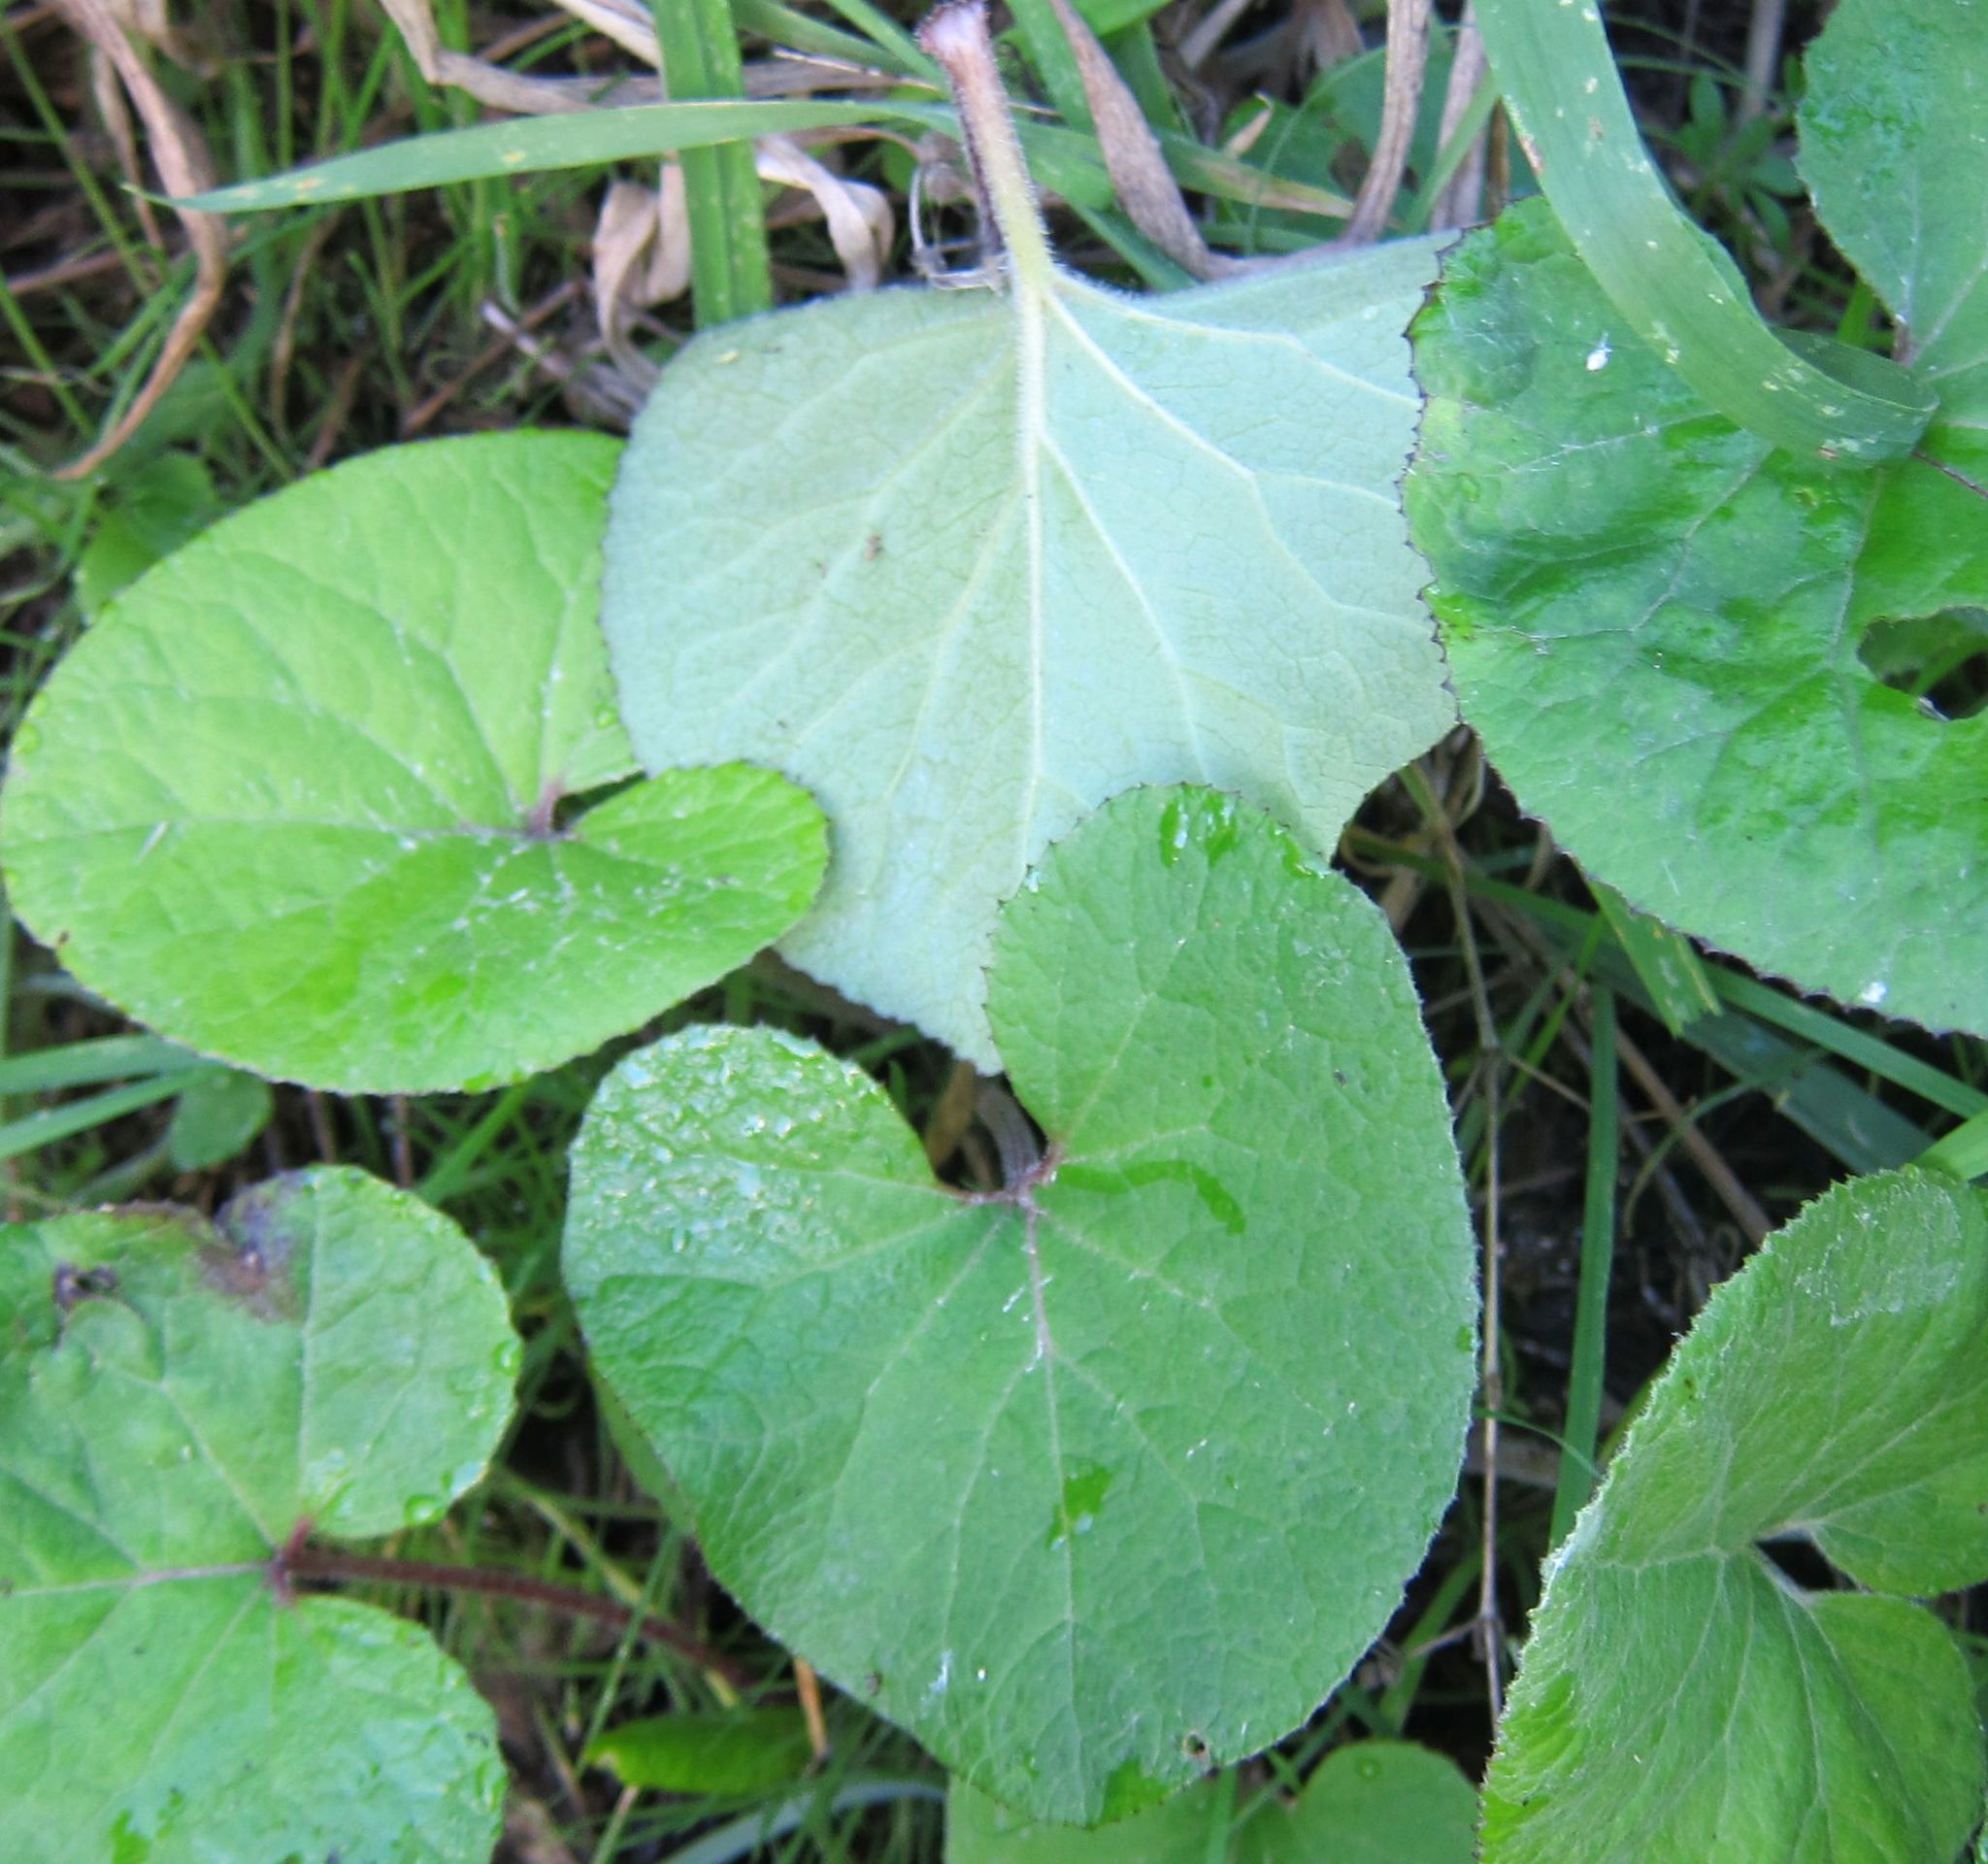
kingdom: Plantae
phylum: Tracheophyta
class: Magnoliopsida
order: Asterales
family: Asteraceae
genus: Petasites
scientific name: Petasites pyrenaicus
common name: Winter heliotrope
